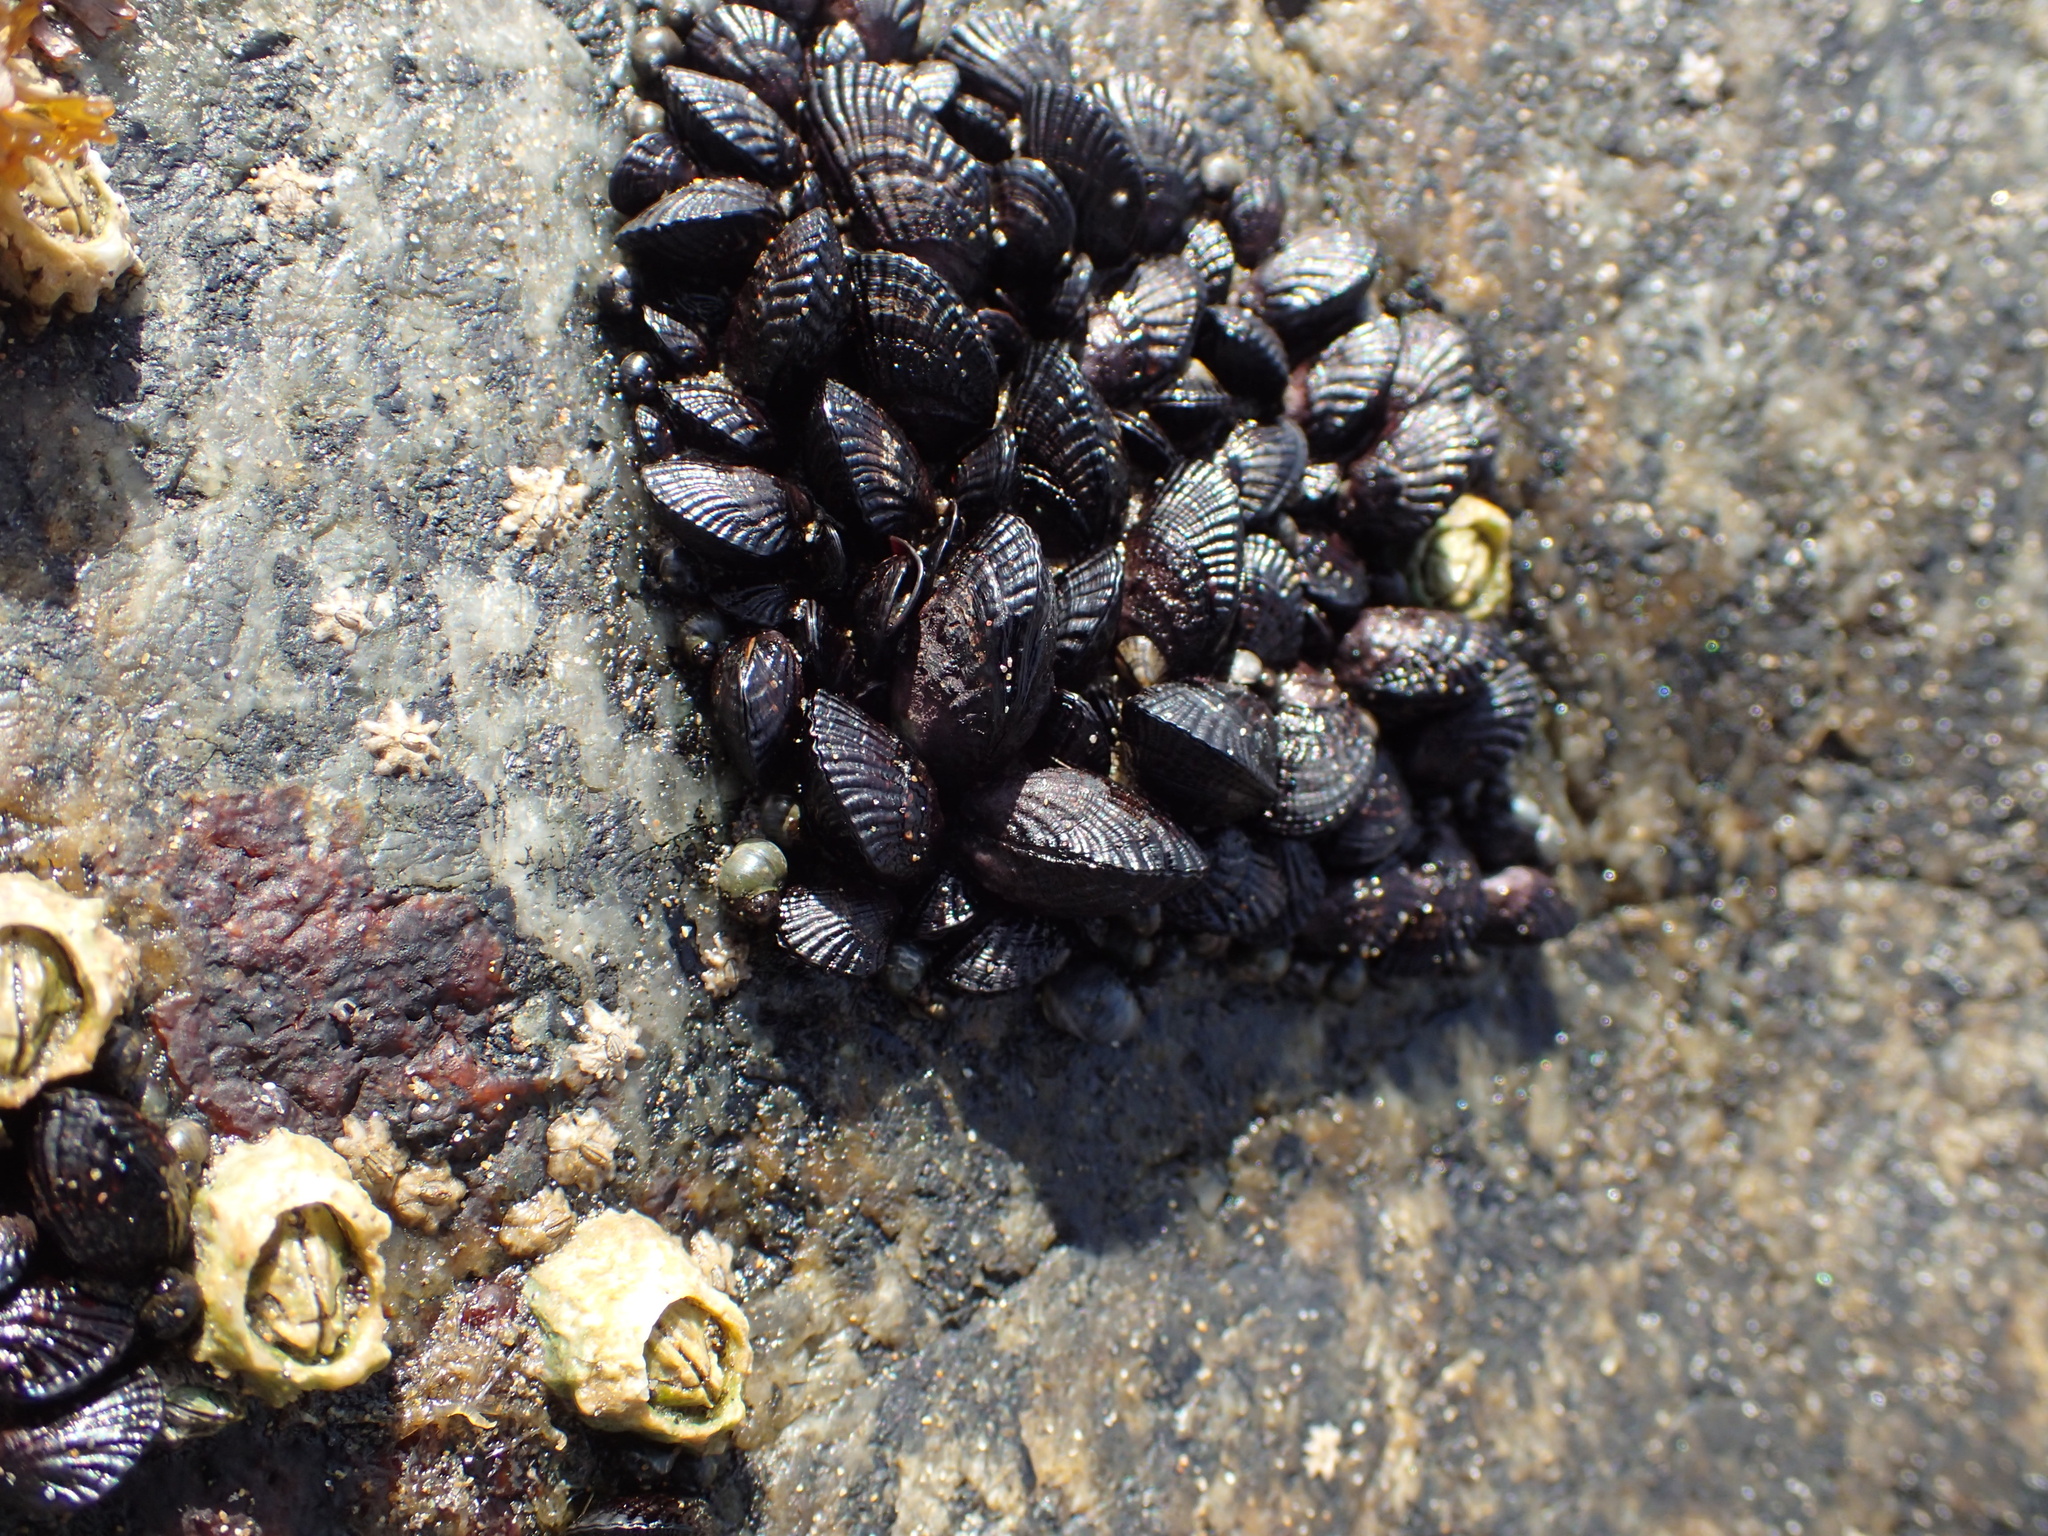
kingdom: Animalia
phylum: Mollusca
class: Bivalvia
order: Mytilida
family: Mytilidae
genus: Perumytilus
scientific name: Perumytilus purpuratus
